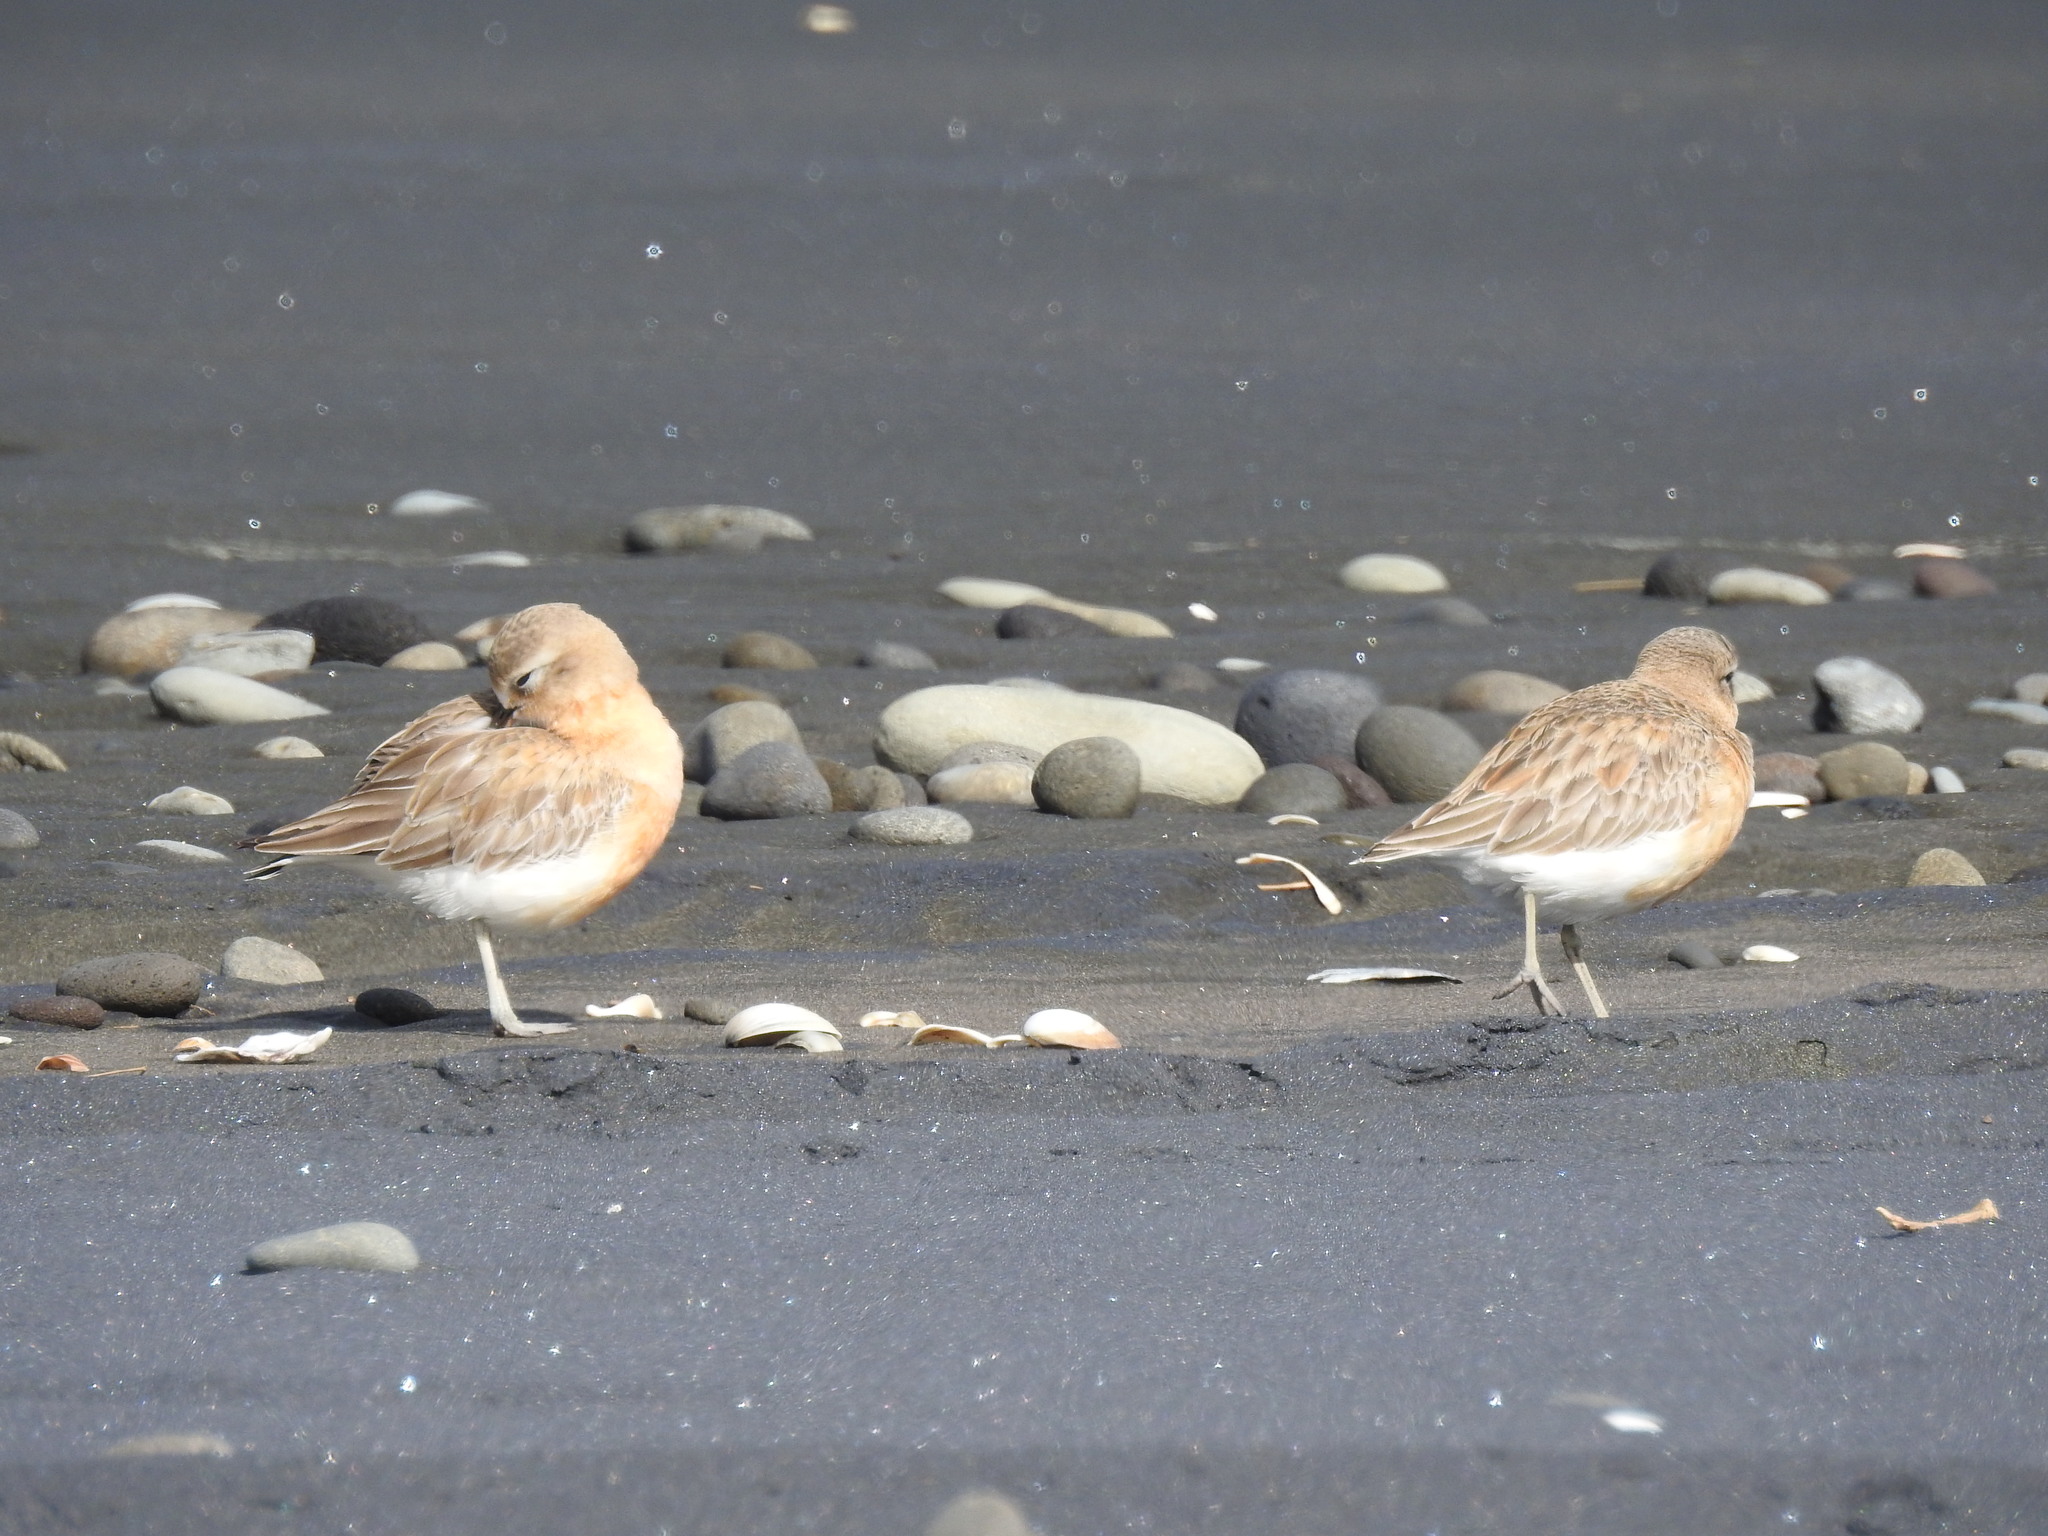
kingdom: Animalia
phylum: Chordata
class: Aves
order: Charadriiformes
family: Charadriidae
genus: Anarhynchus
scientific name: Anarhynchus
